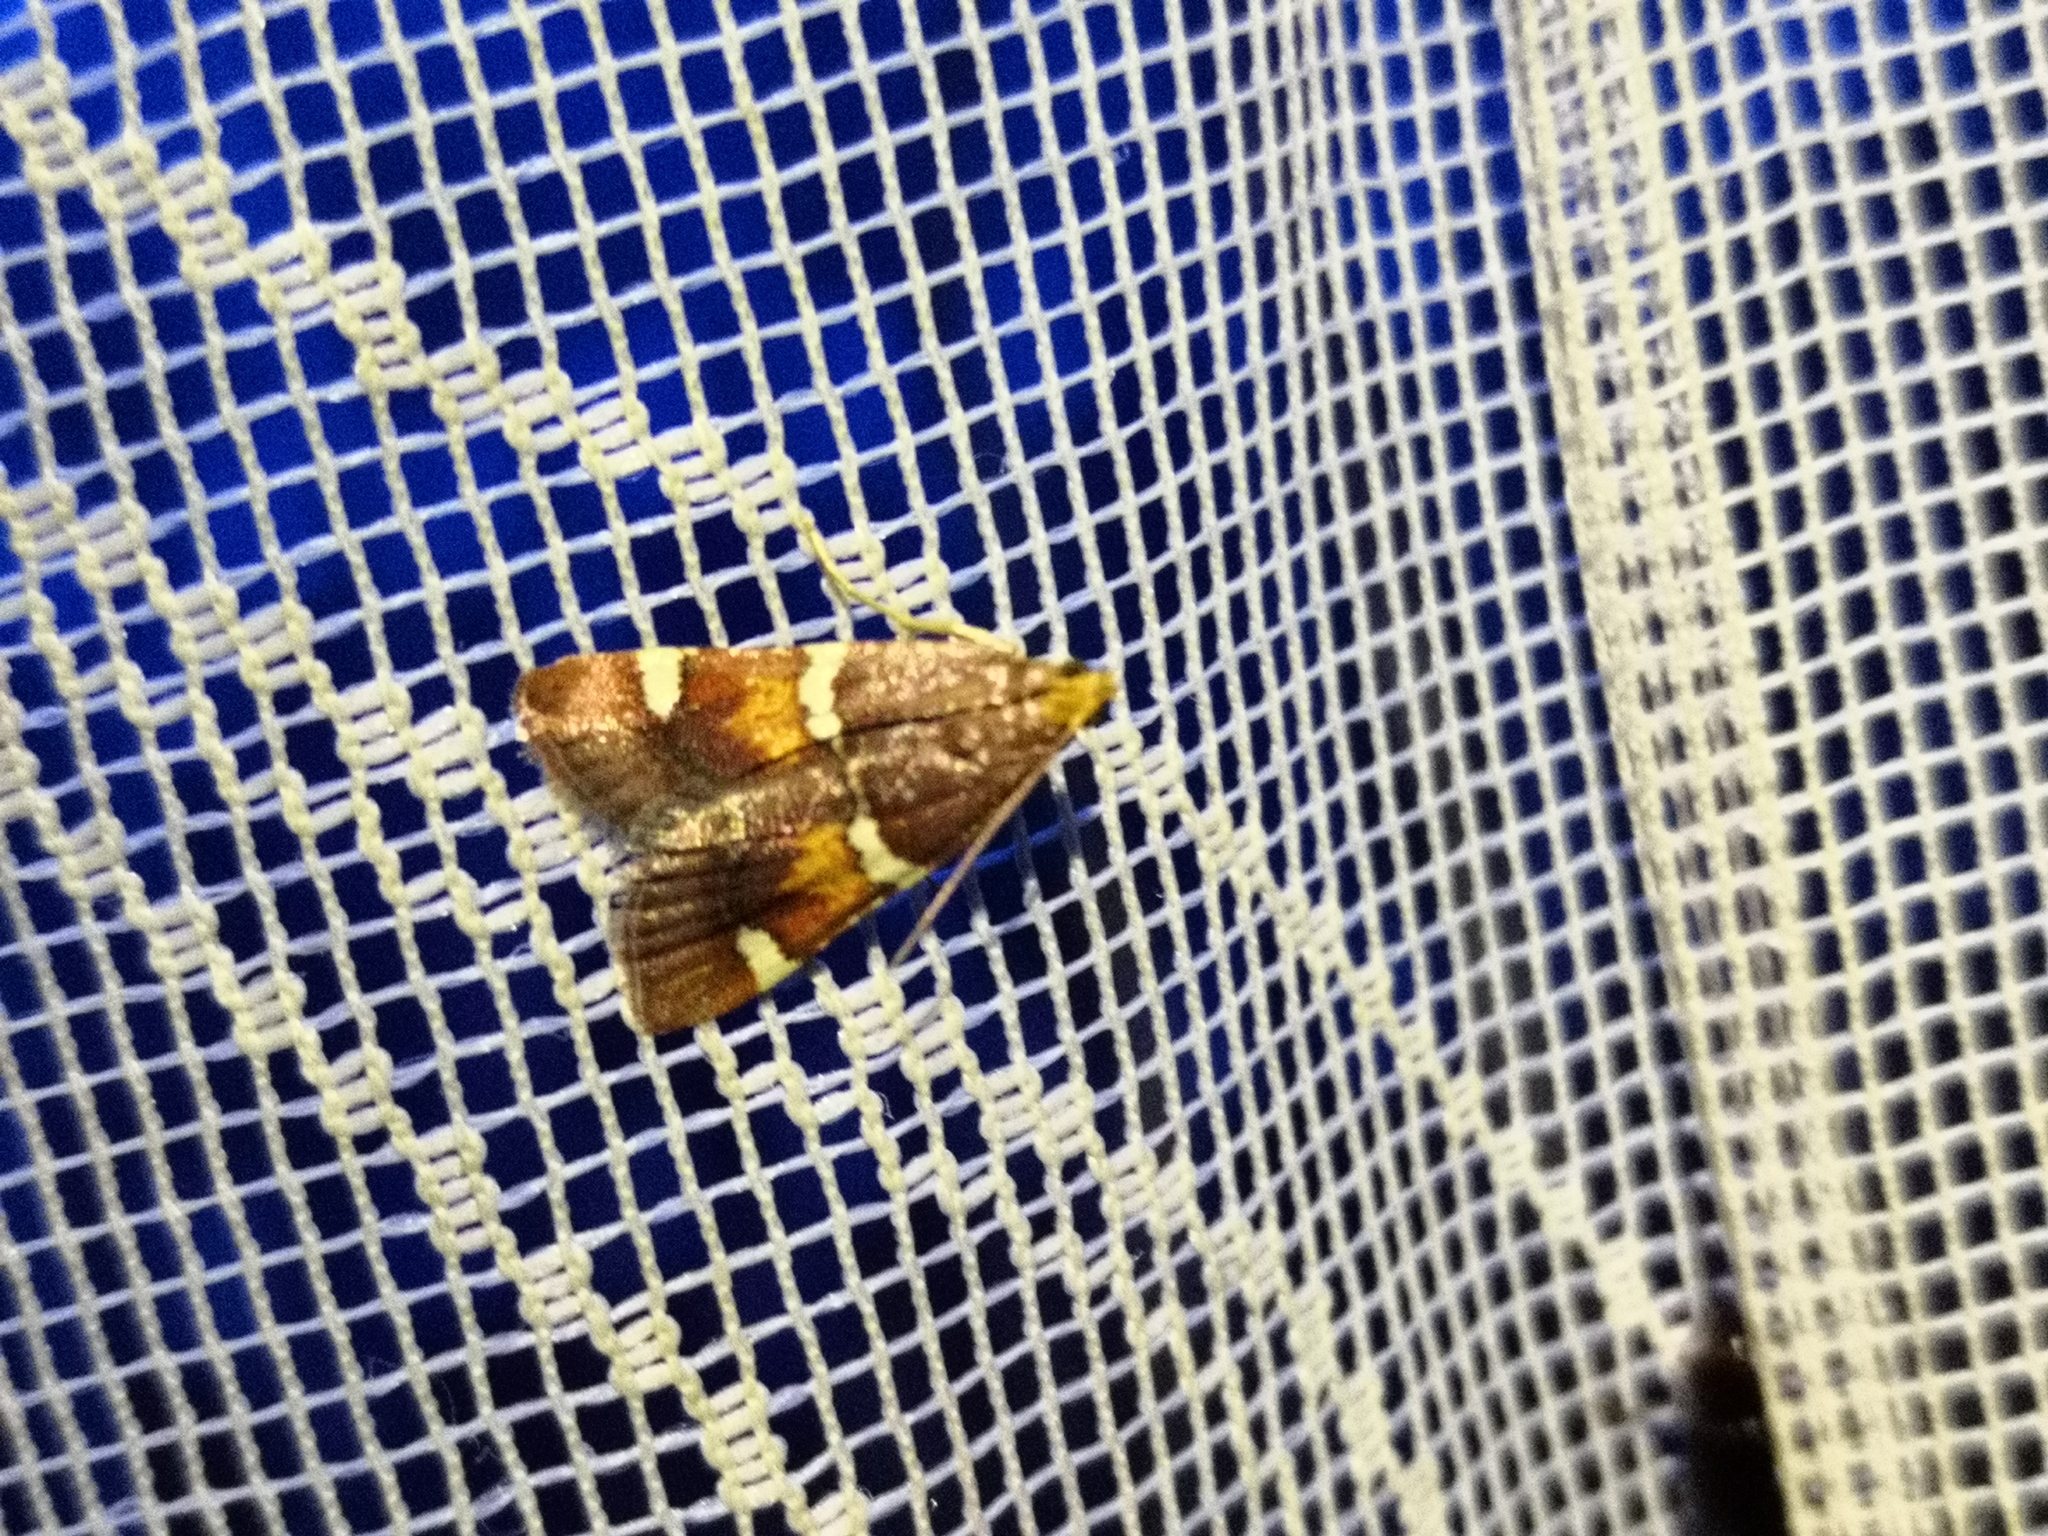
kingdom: Animalia
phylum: Arthropoda
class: Insecta
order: Lepidoptera
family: Pyralidae
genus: Pyralis
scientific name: Pyralis regalis
